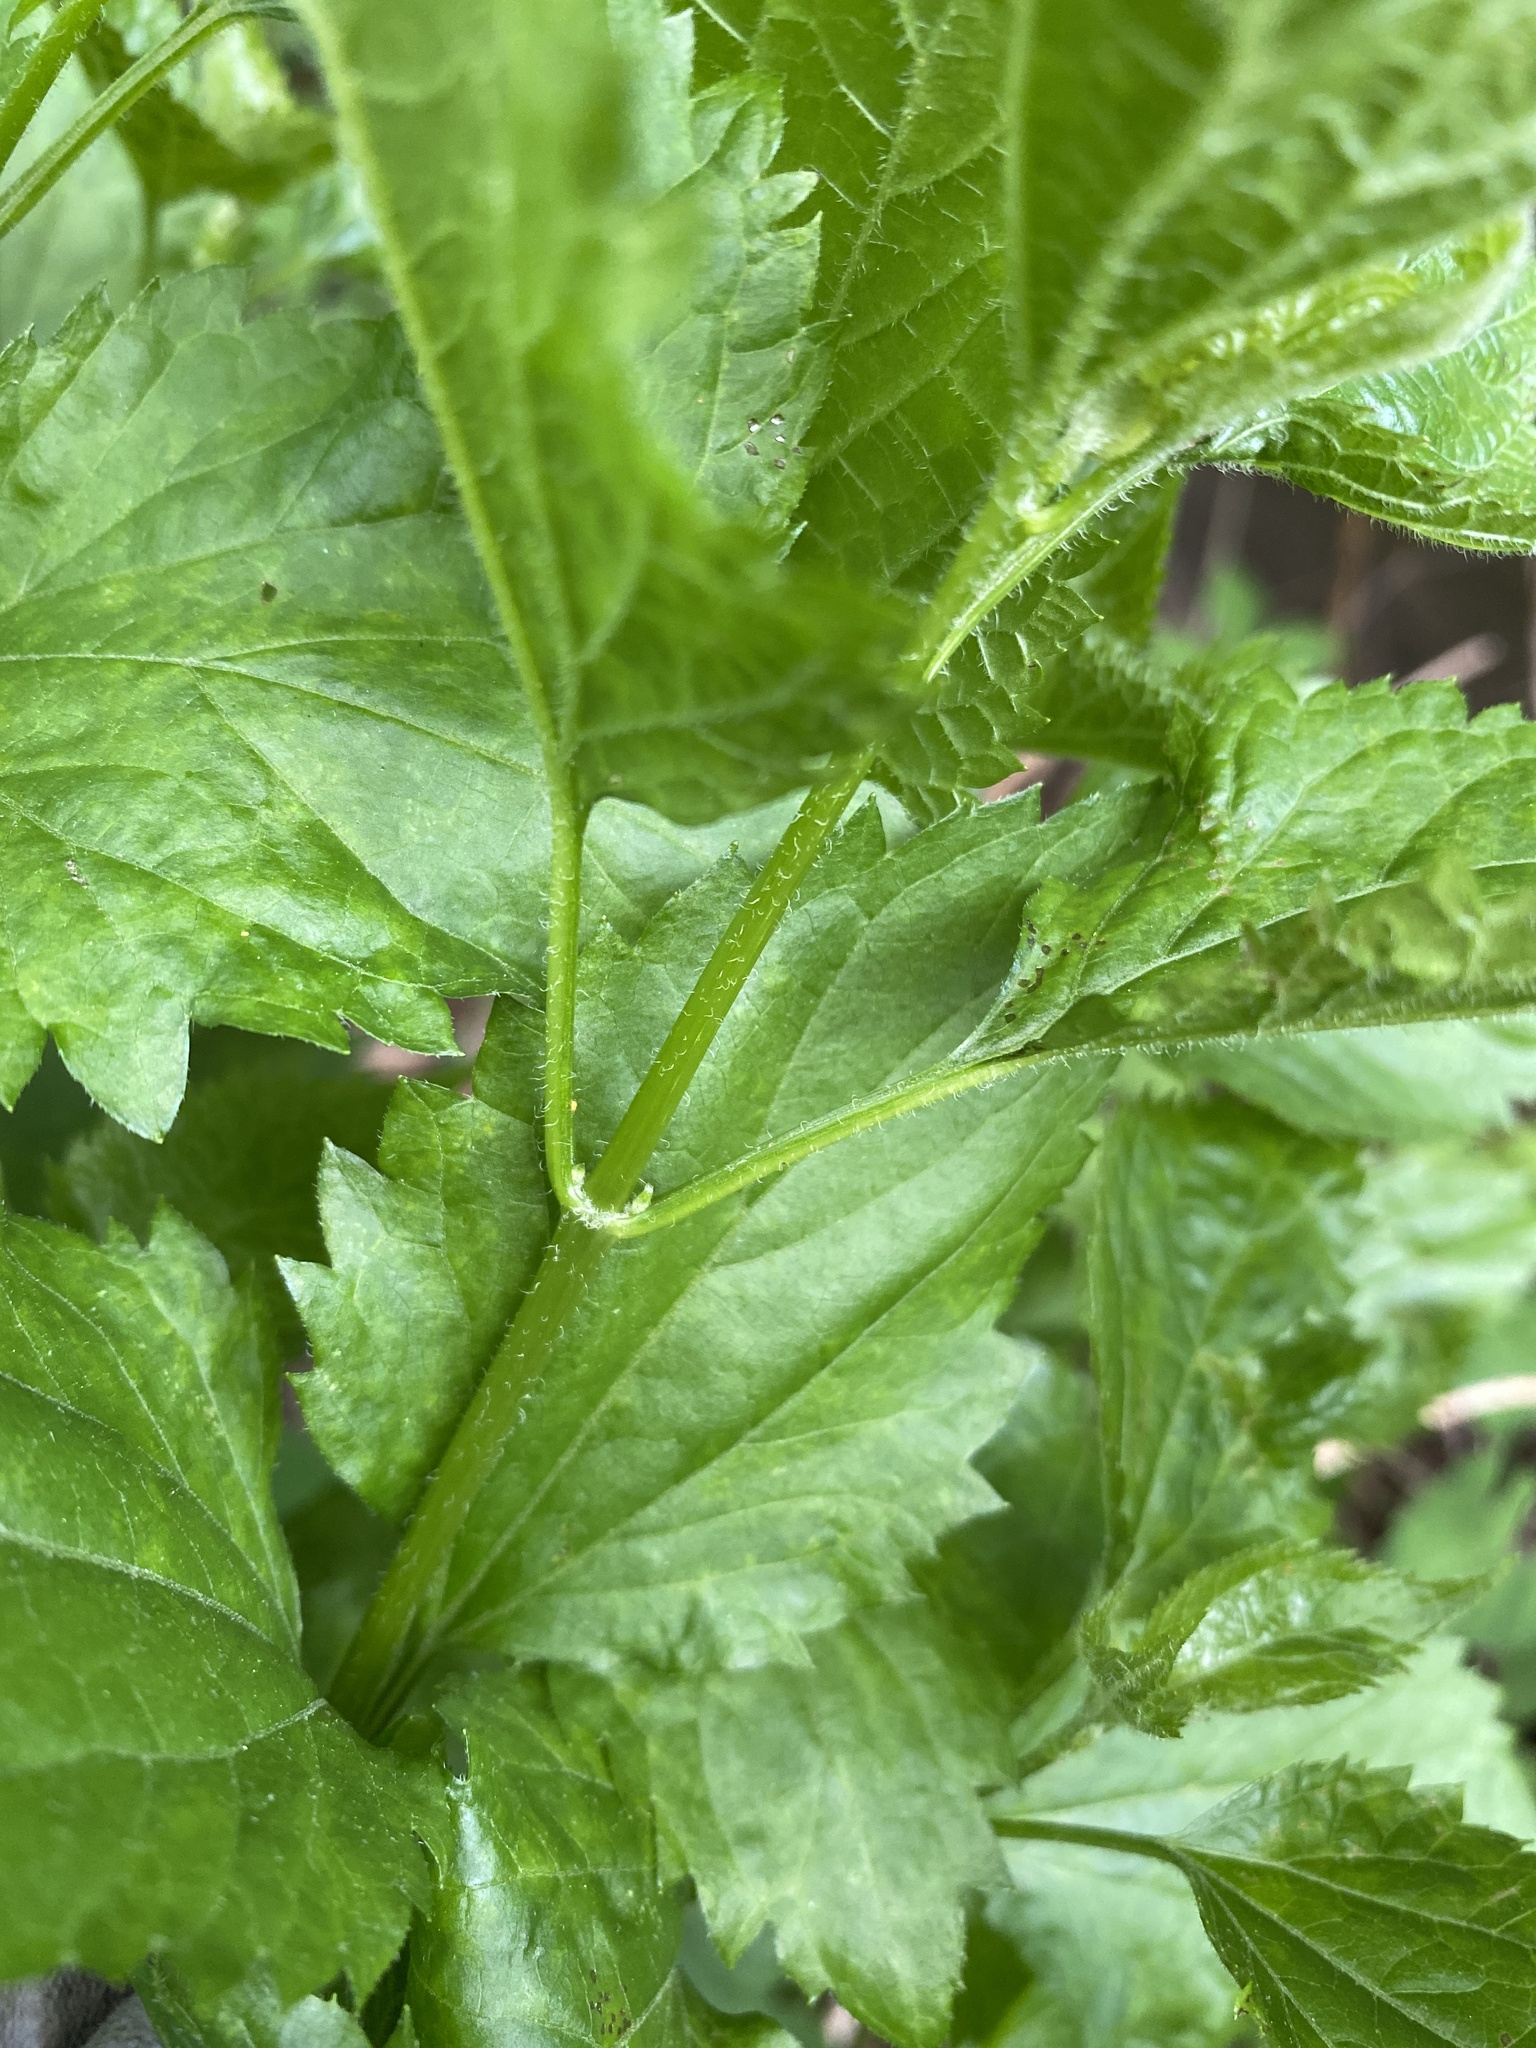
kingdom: Plantae
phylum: Tracheophyta
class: Magnoliopsida
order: Asterales
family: Asteraceae
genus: Ageratina
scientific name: Ageratina altissima
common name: White snakeroot
